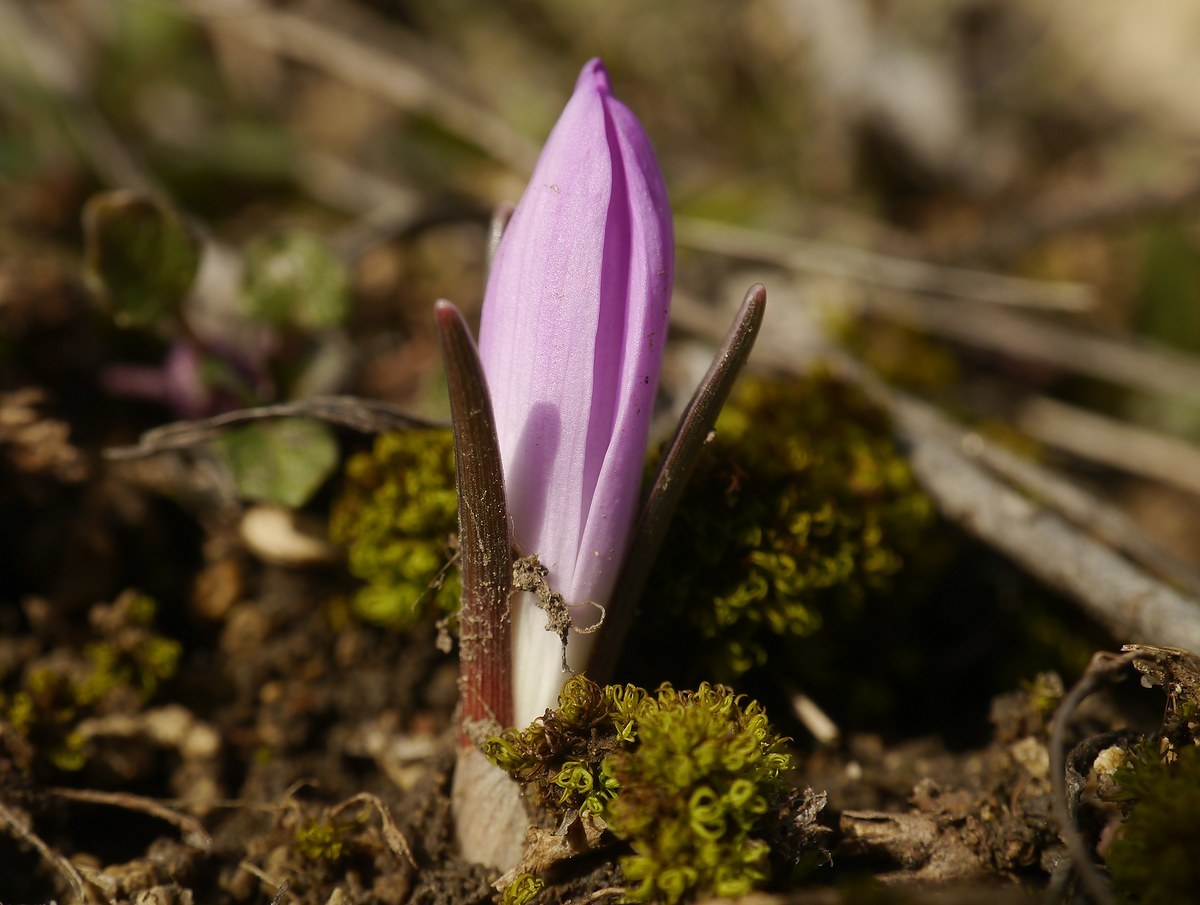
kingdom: Plantae
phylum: Tracheophyta
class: Liliopsida
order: Liliales
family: Colchicaceae
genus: Colchicum
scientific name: Colchicum bulbocodium
